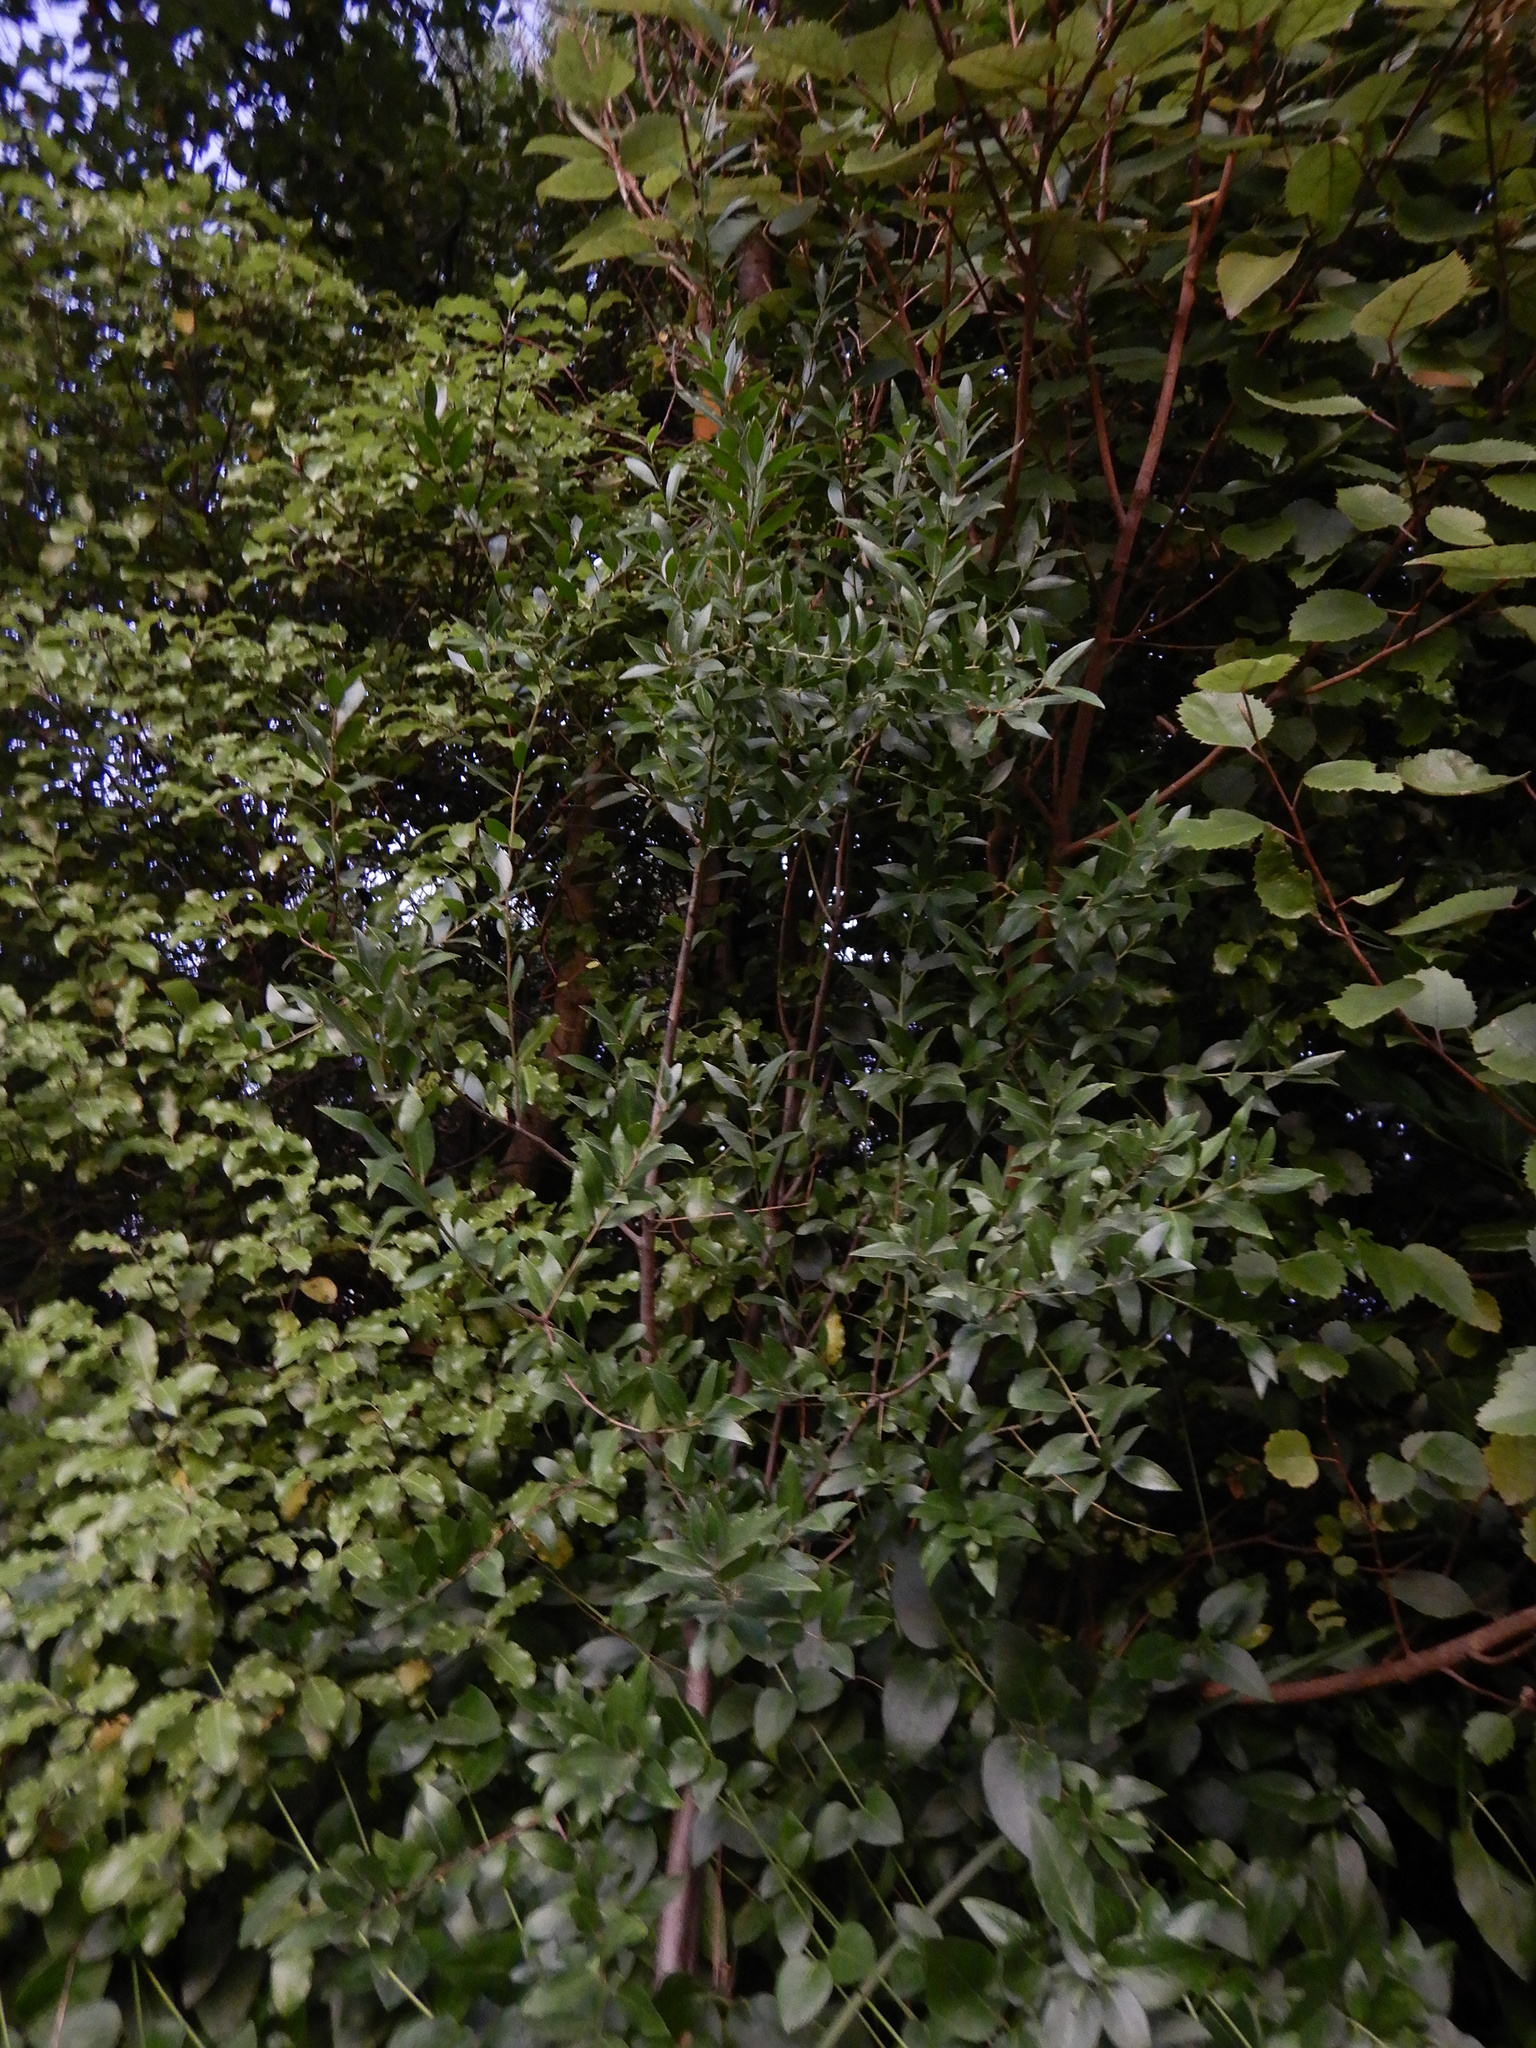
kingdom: Plantae
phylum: Tracheophyta
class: Magnoliopsida
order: Celastrales
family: Celastraceae
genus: Maytenus
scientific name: Maytenus boaria
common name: Mayten
